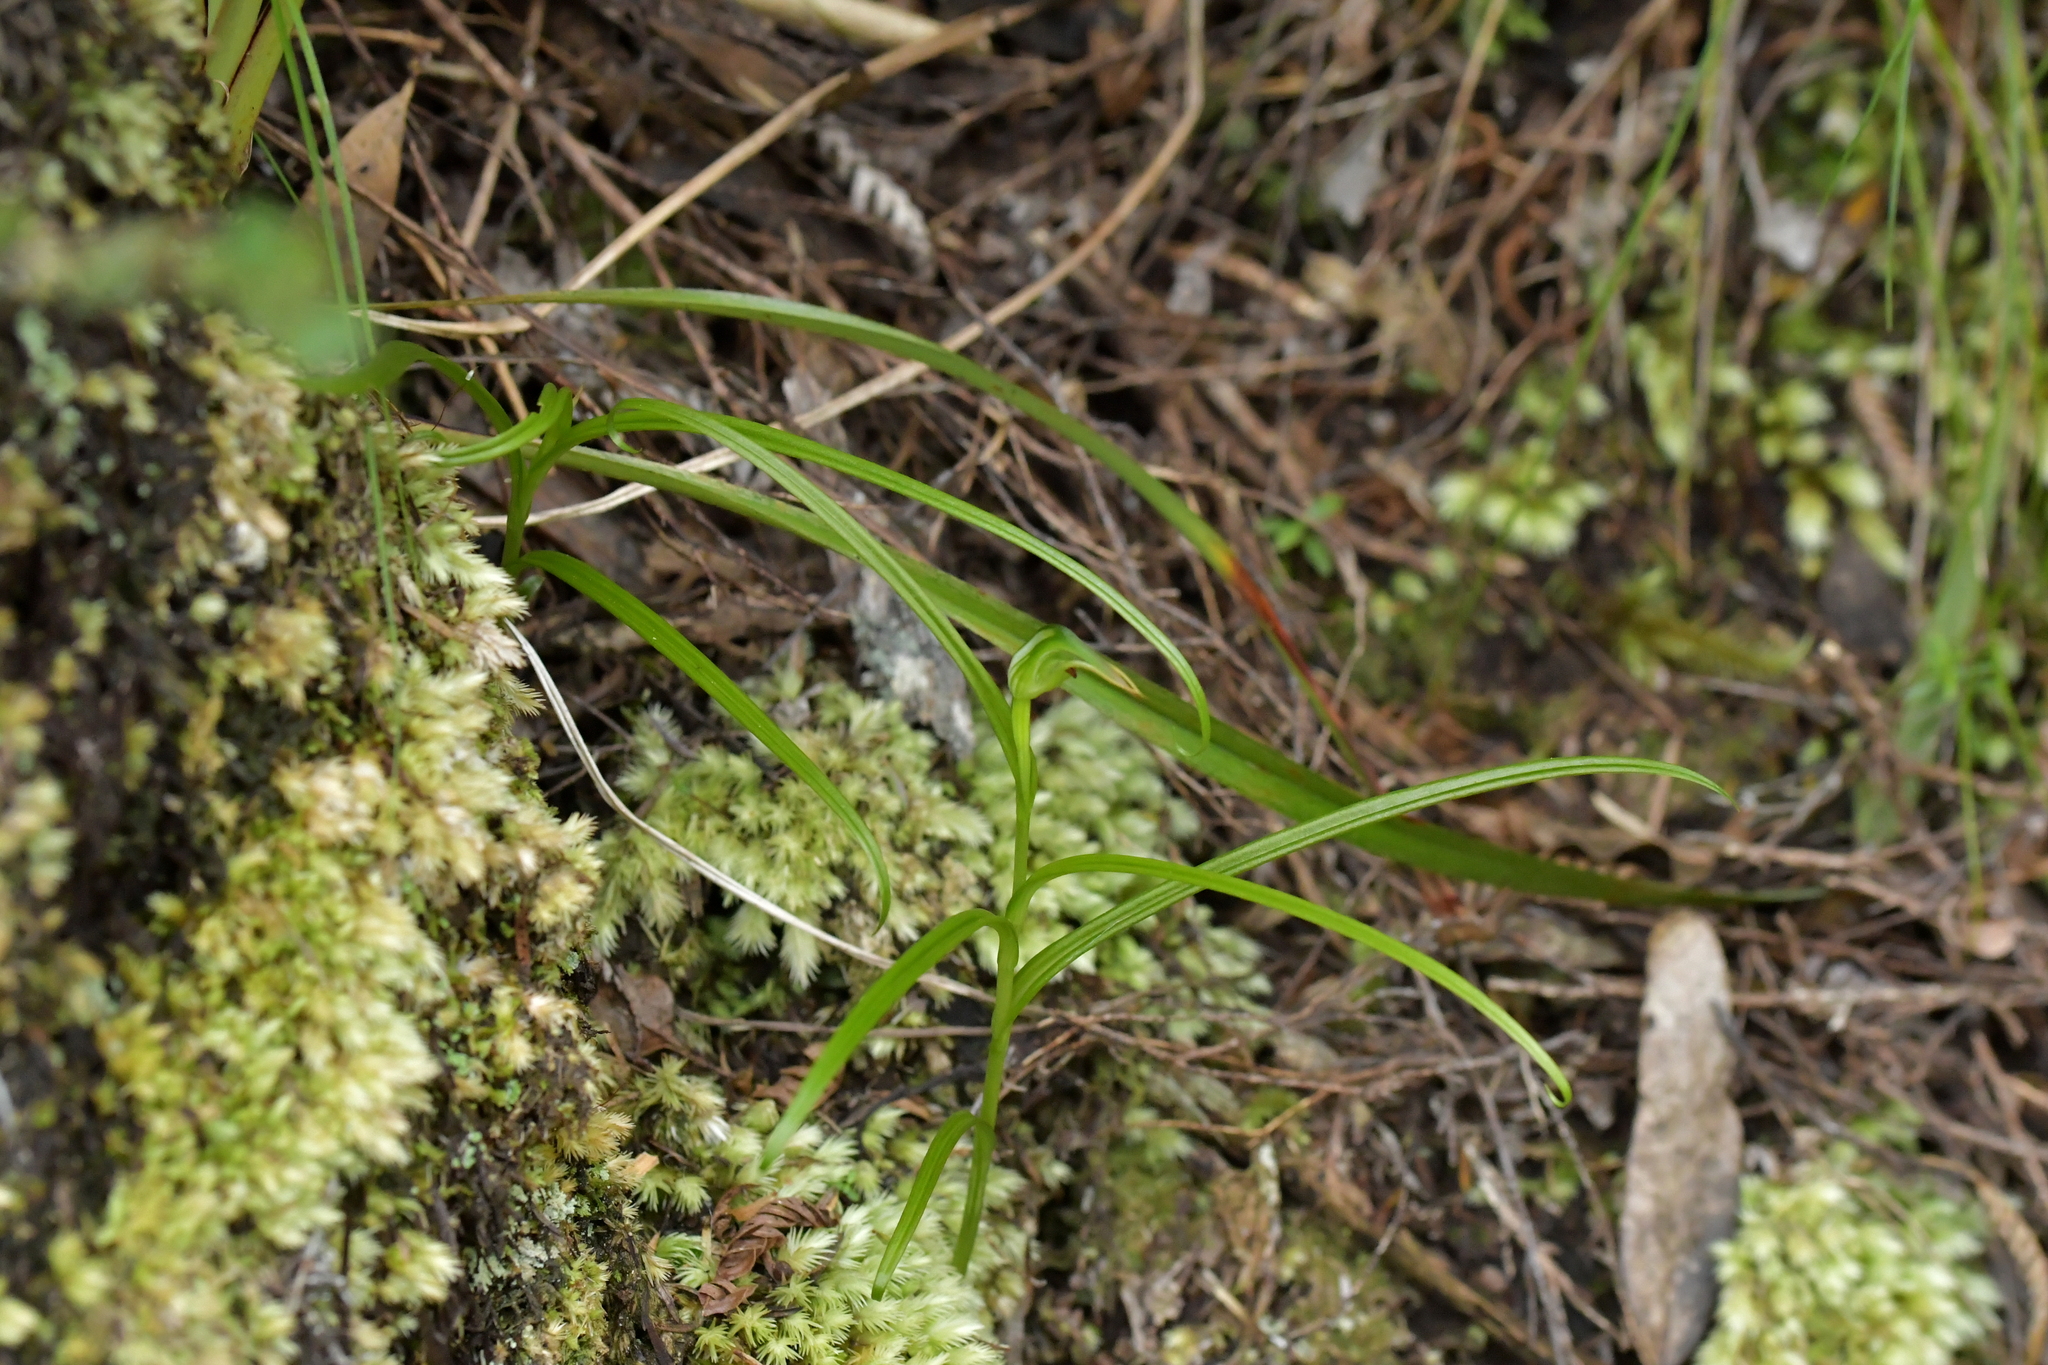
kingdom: Plantae
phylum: Tracheophyta
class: Liliopsida
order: Asparagales
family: Orchidaceae
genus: Pterostylis
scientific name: Pterostylis graminea
